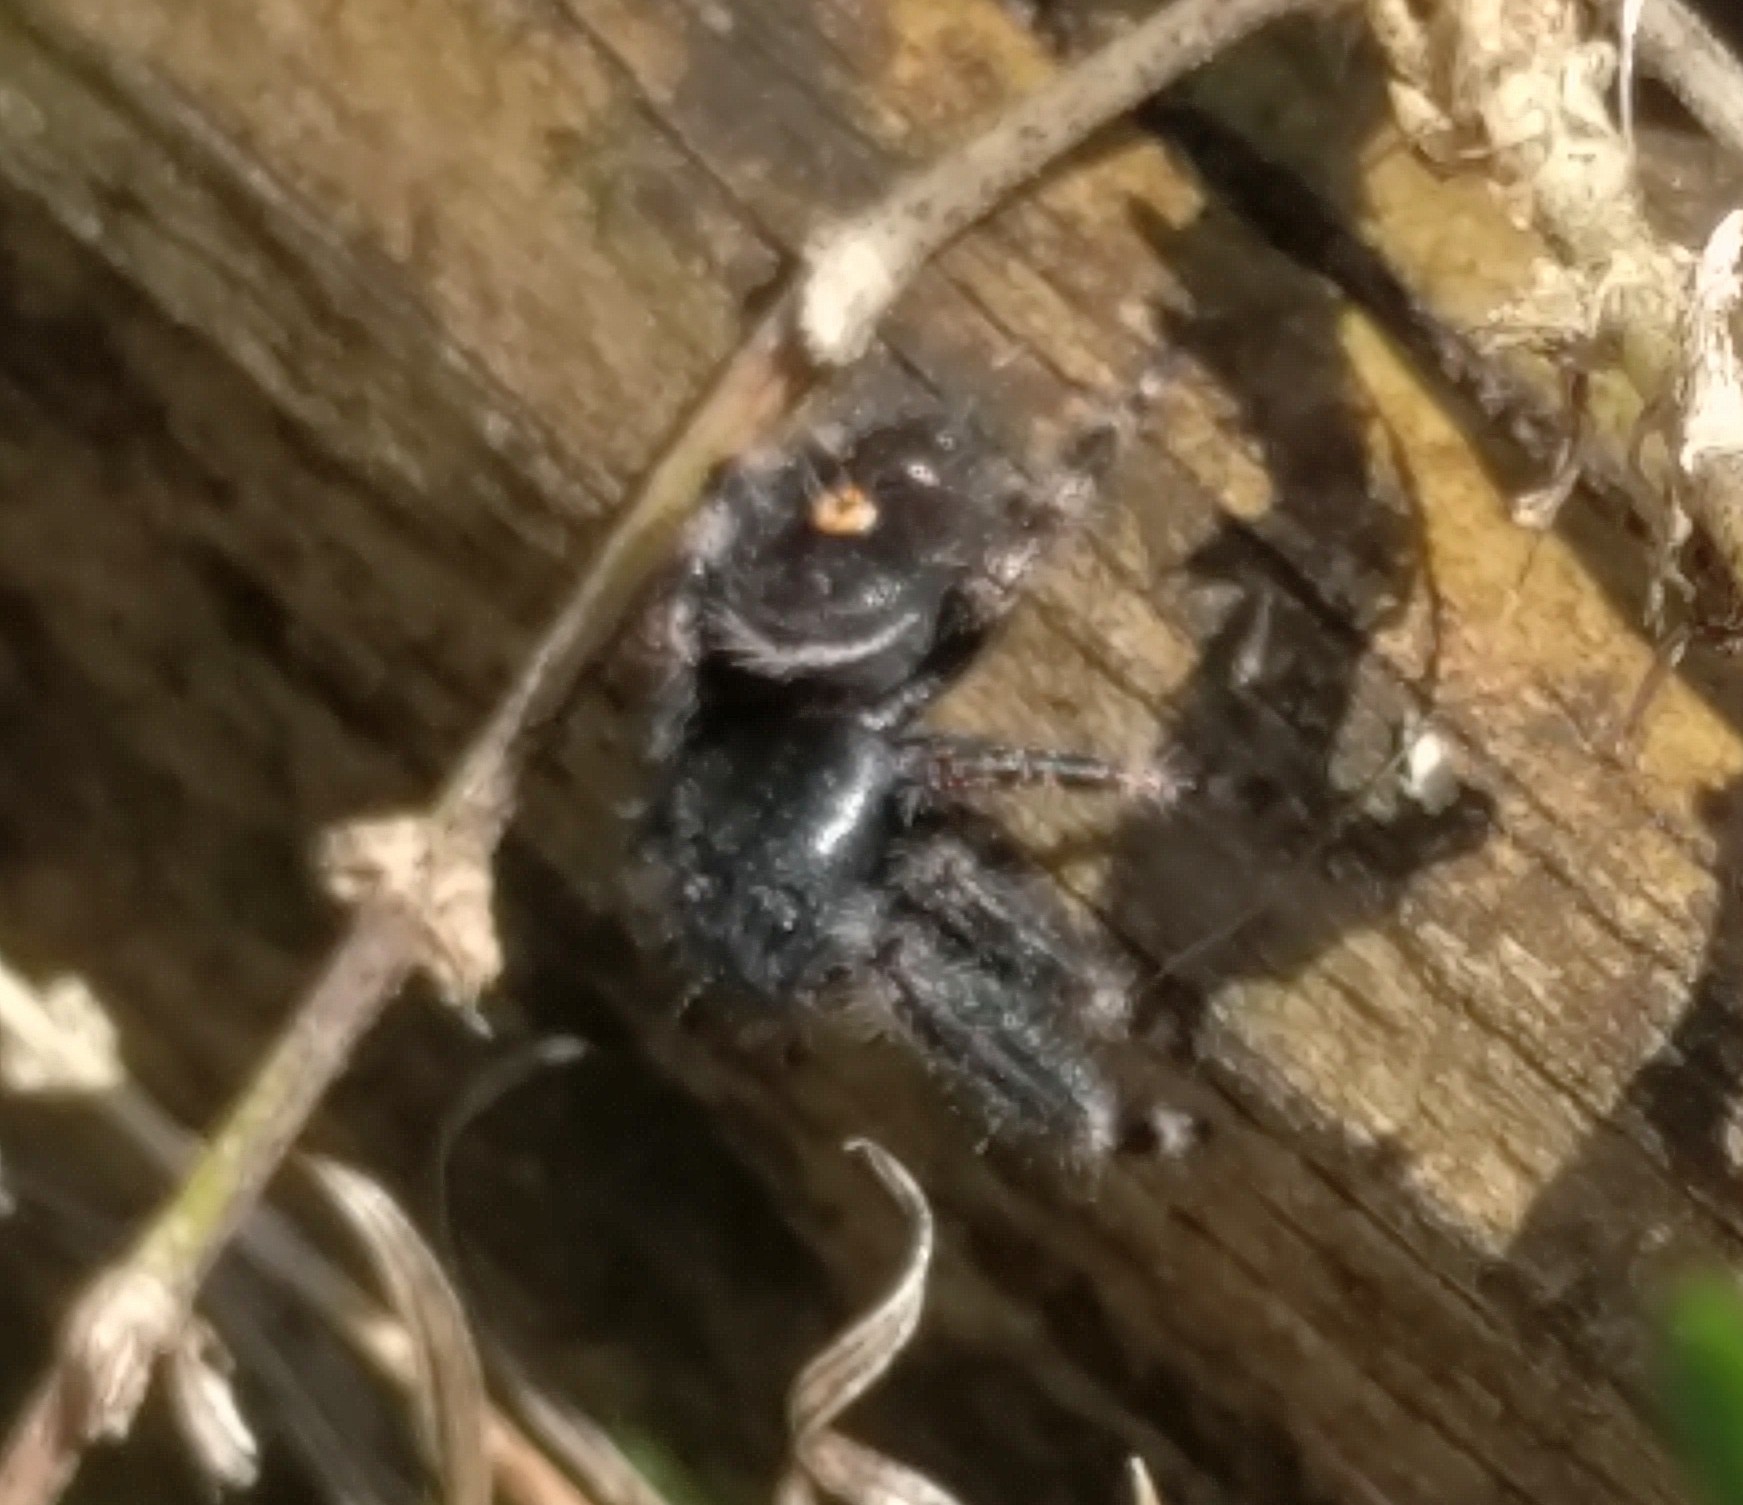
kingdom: Animalia
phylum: Arthropoda
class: Arachnida
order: Araneae
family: Salticidae
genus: Phidippus
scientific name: Phidippus audax
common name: Bold jumper
